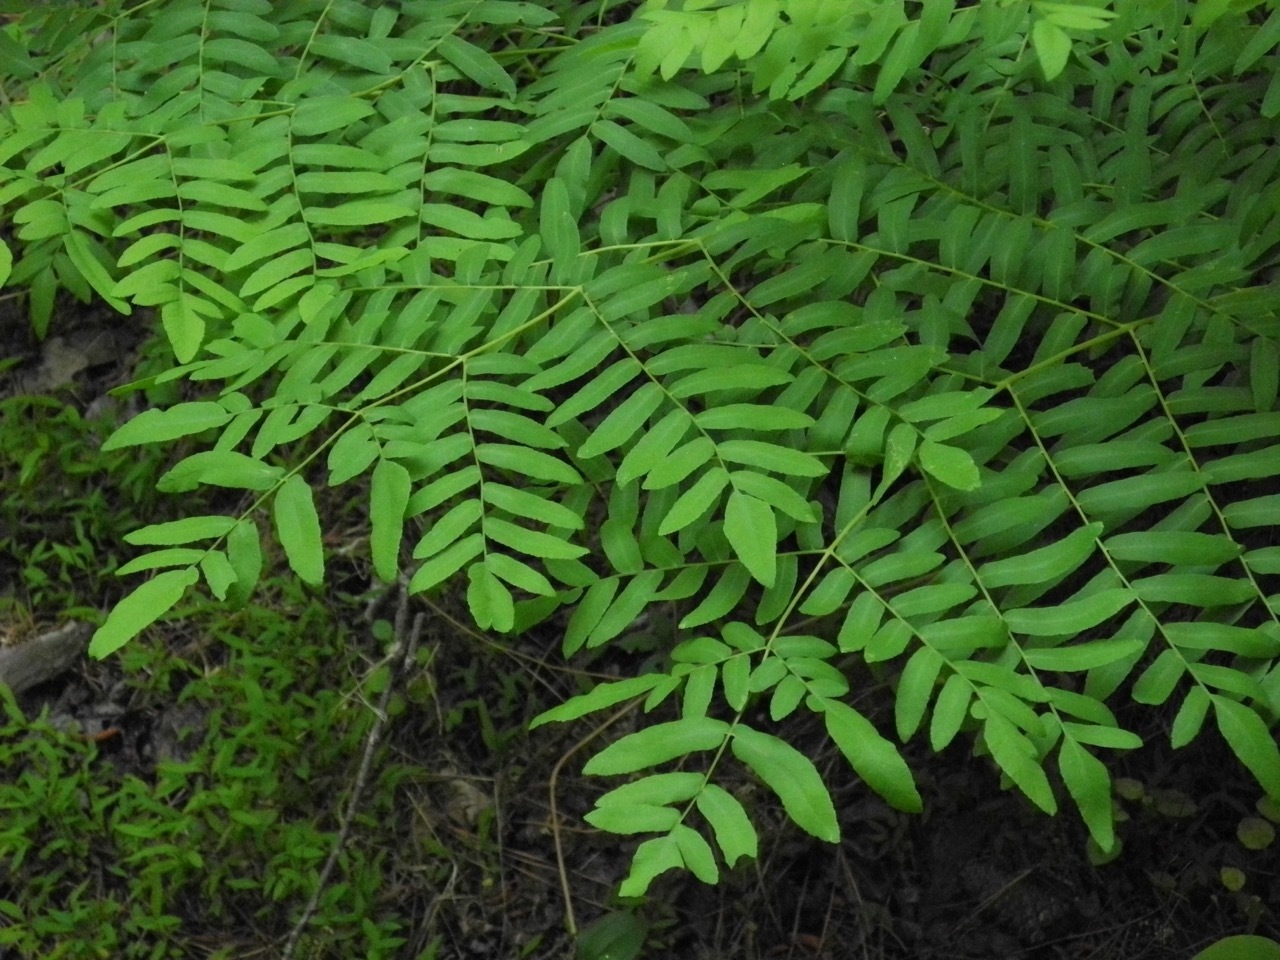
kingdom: Plantae
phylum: Tracheophyta
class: Polypodiopsida
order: Osmundales
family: Osmundaceae
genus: Osmunda
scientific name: Osmunda spectabilis
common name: American royal fern
